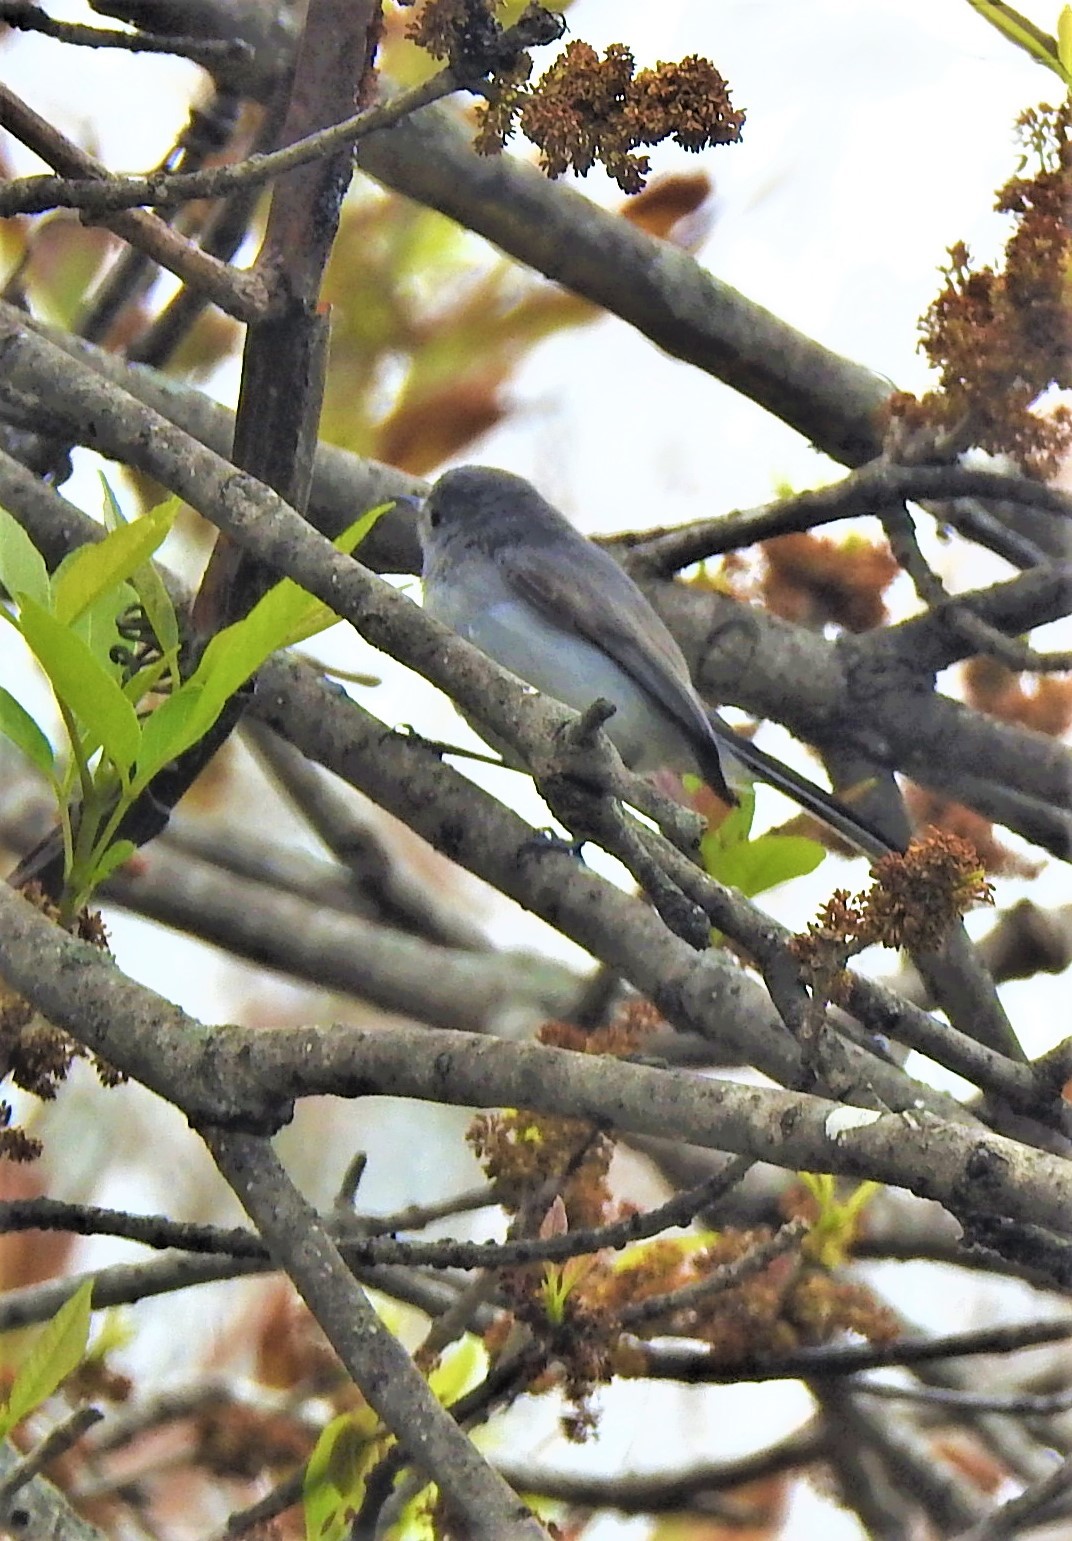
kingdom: Animalia
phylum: Chordata
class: Aves
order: Passeriformes
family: Polioptilidae
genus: Polioptila
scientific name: Polioptila caerulea
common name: Blue-gray gnatcatcher
